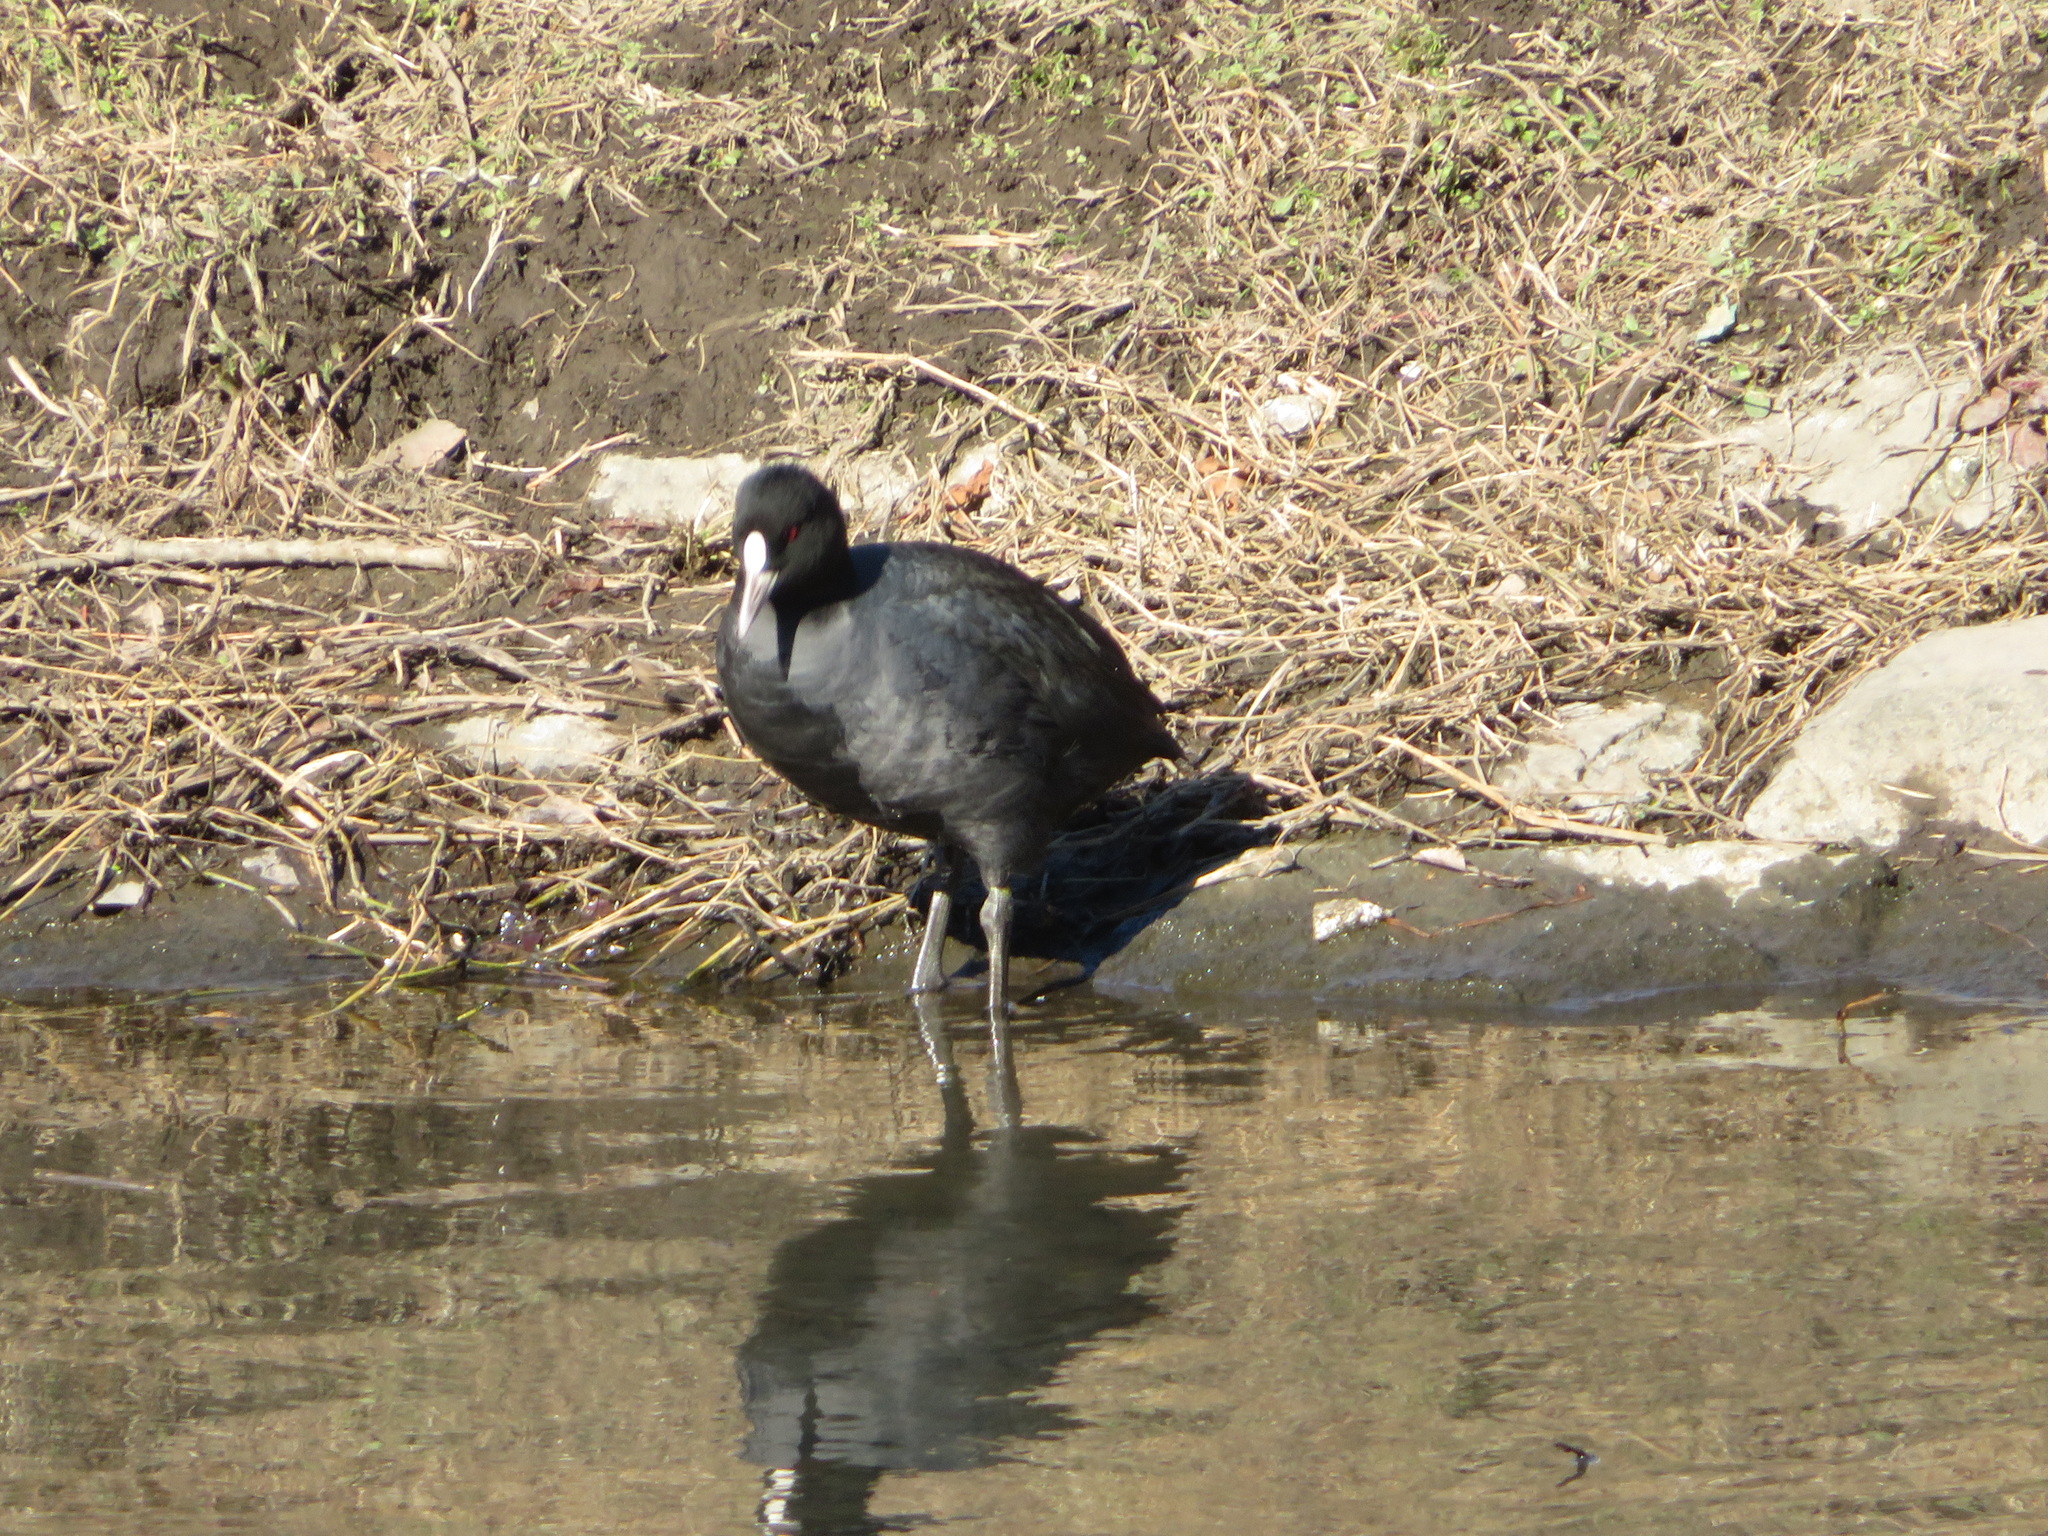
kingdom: Animalia
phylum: Chordata
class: Aves
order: Gruiformes
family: Rallidae
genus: Fulica
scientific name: Fulica atra
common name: Eurasian coot
